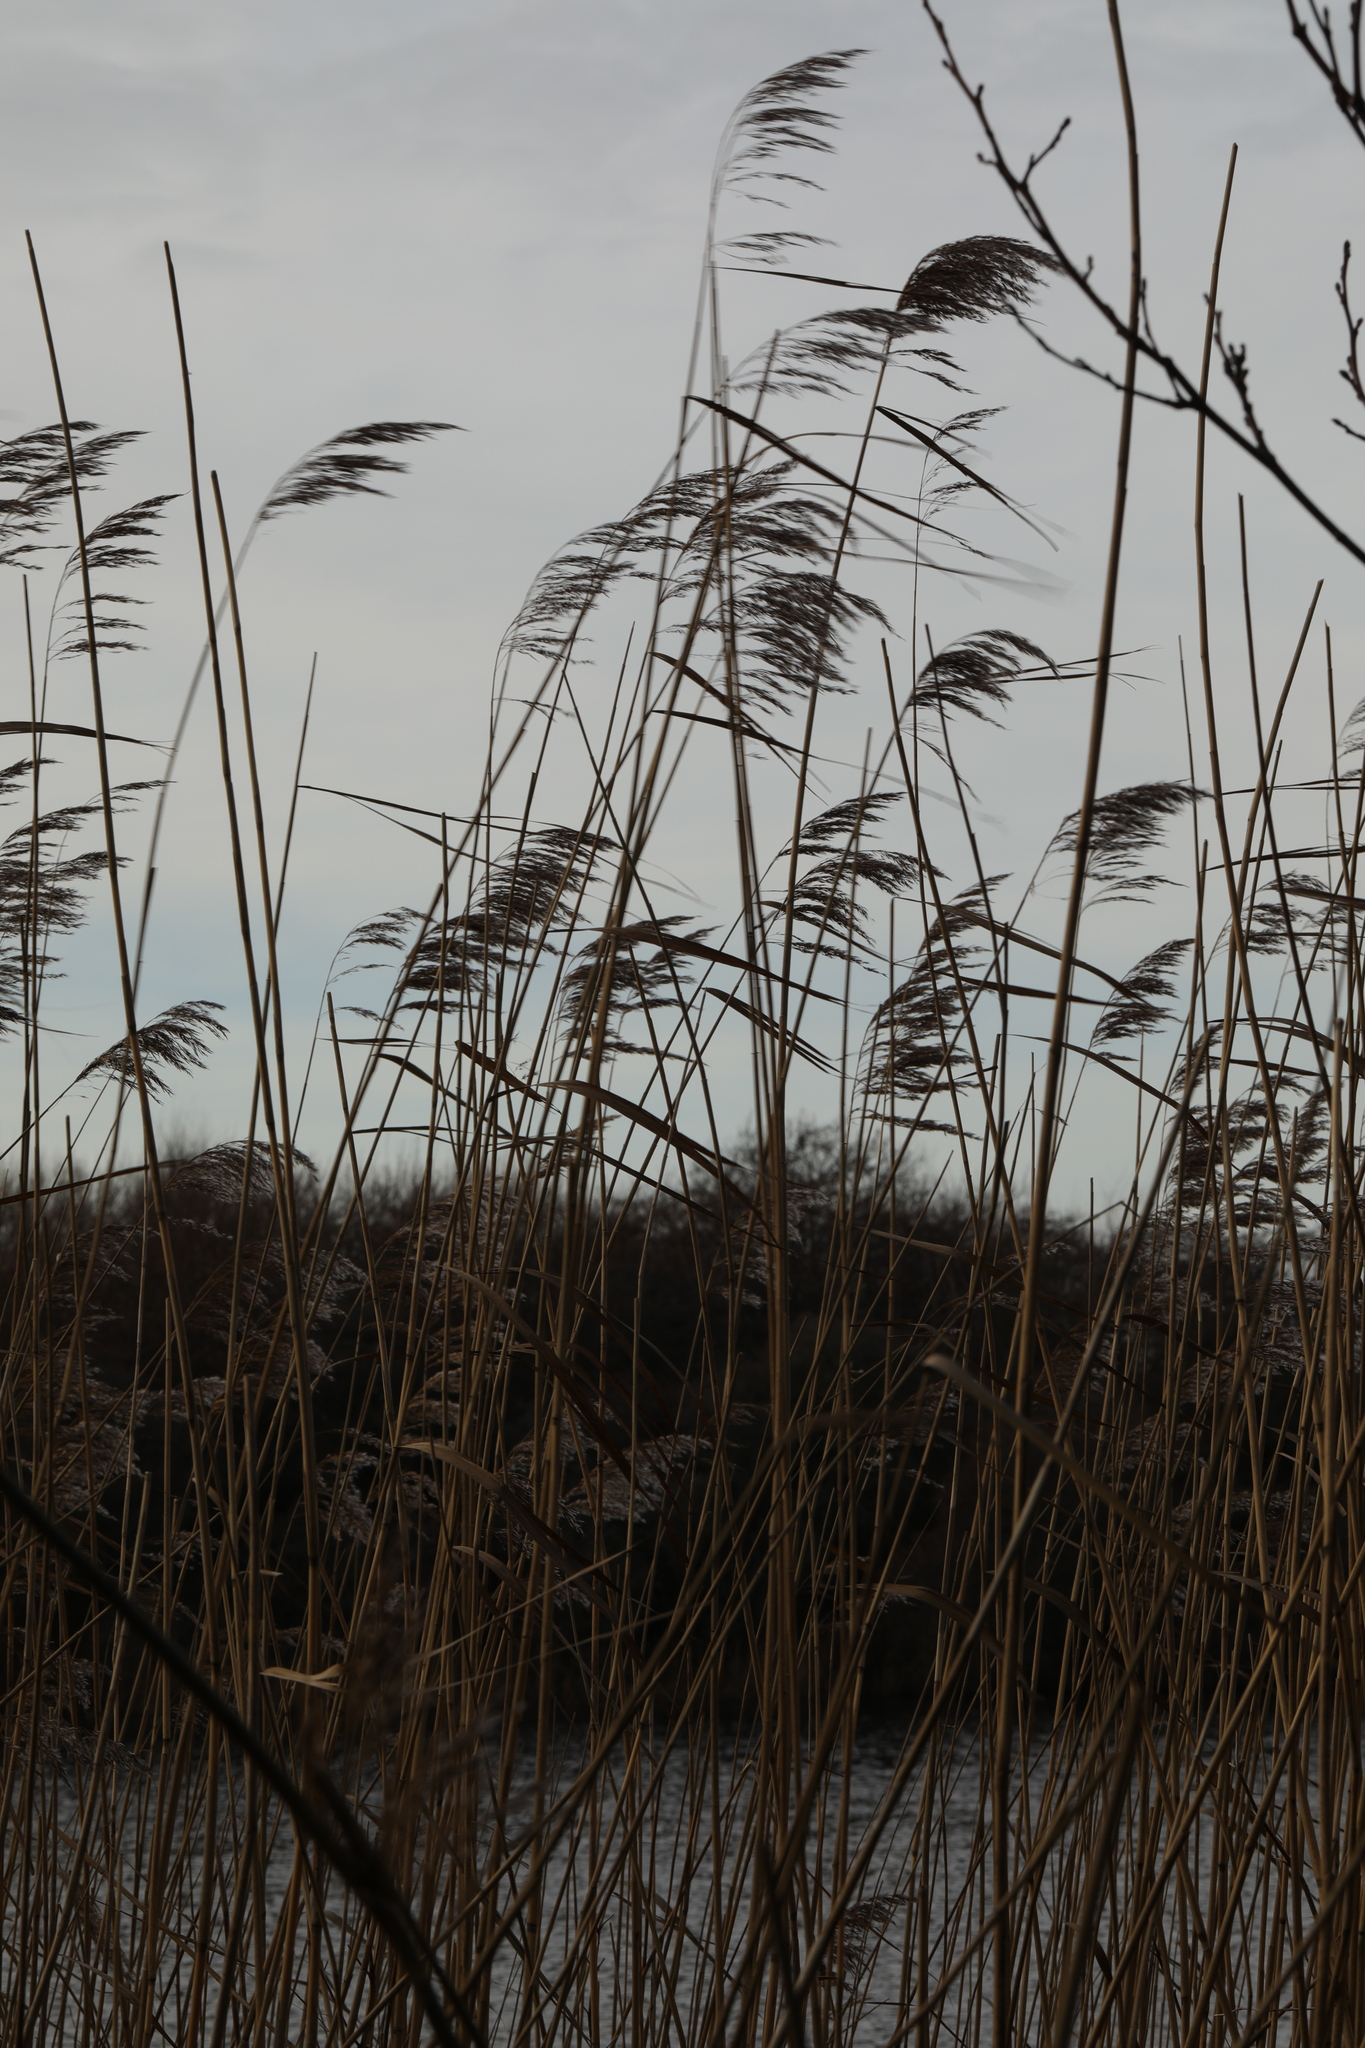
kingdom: Plantae
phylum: Tracheophyta
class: Liliopsida
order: Poales
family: Poaceae
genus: Phragmites
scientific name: Phragmites australis
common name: Common reed
